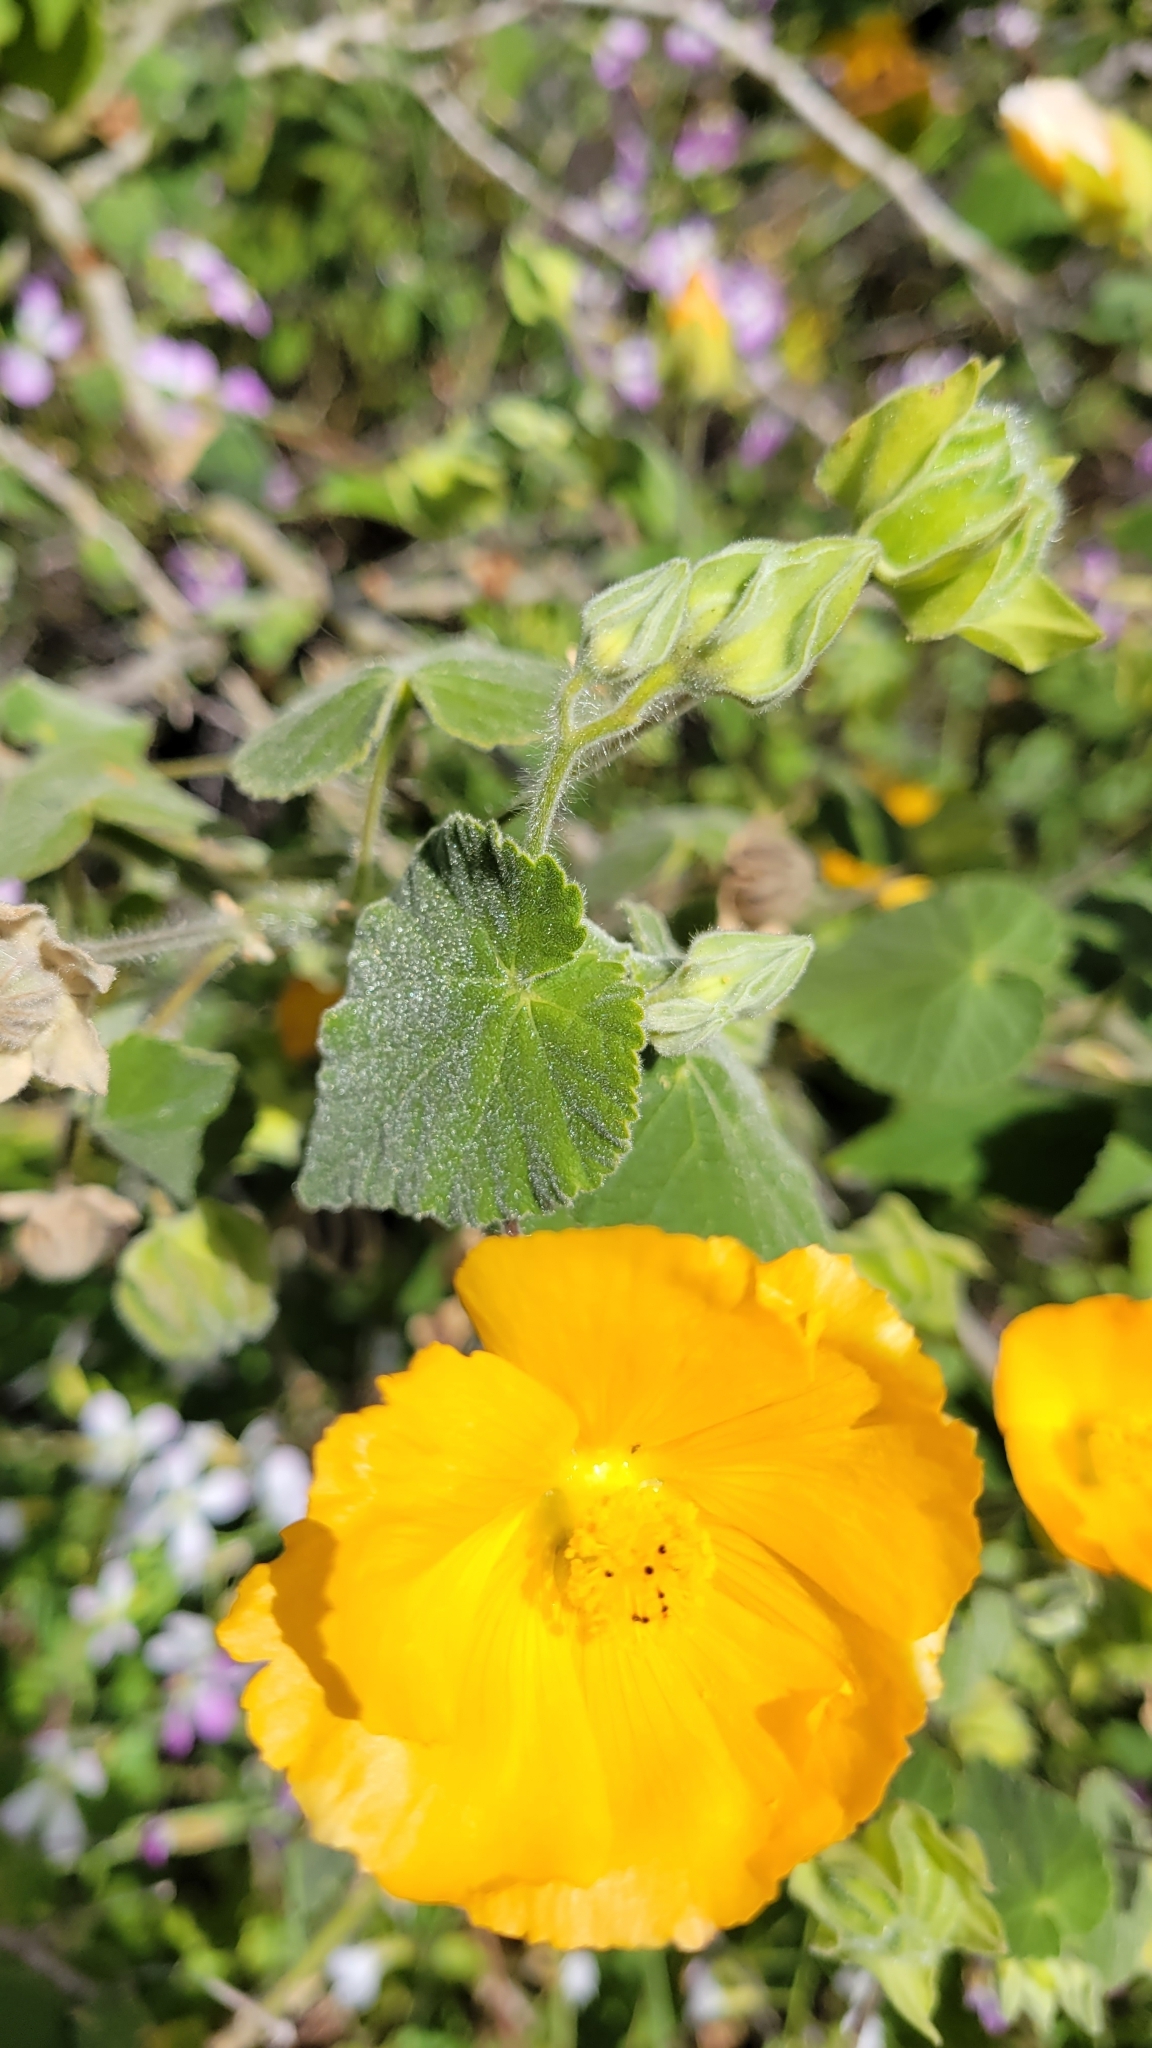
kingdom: Plantae
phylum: Tracheophyta
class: Magnoliopsida
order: Malvales
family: Malvaceae
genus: Abutilon
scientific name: Abutilon grandifolium
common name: Hairy abutilon
